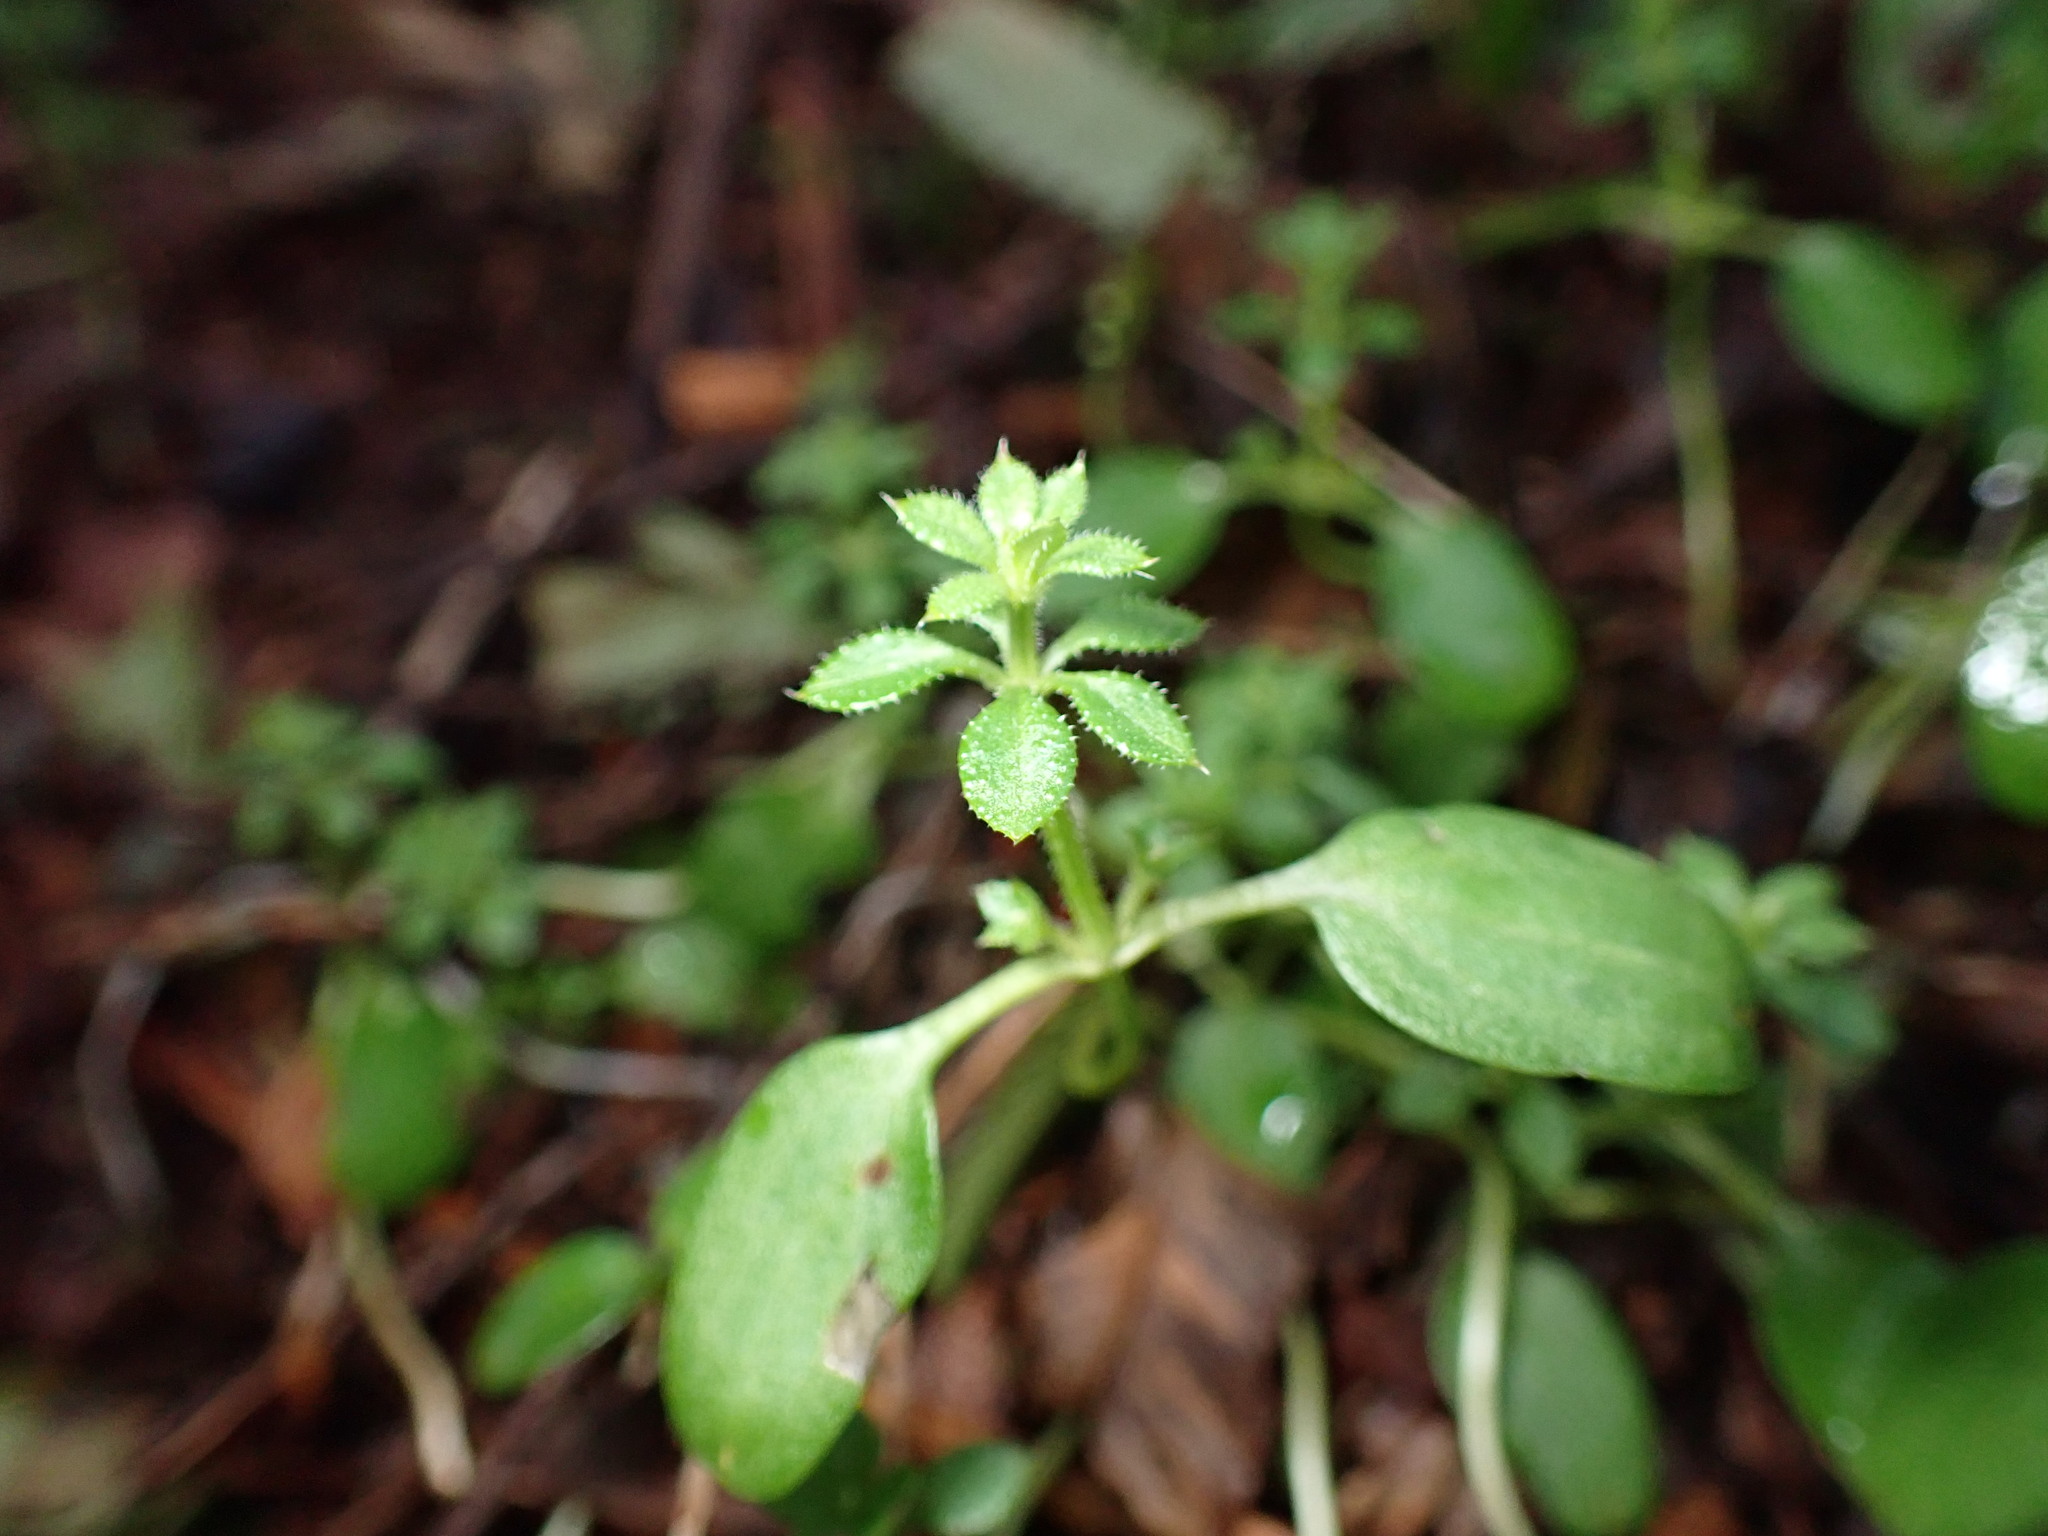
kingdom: Plantae
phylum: Tracheophyta
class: Magnoliopsida
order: Gentianales
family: Rubiaceae
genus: Galium
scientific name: Galium aparine
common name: Cleavers
